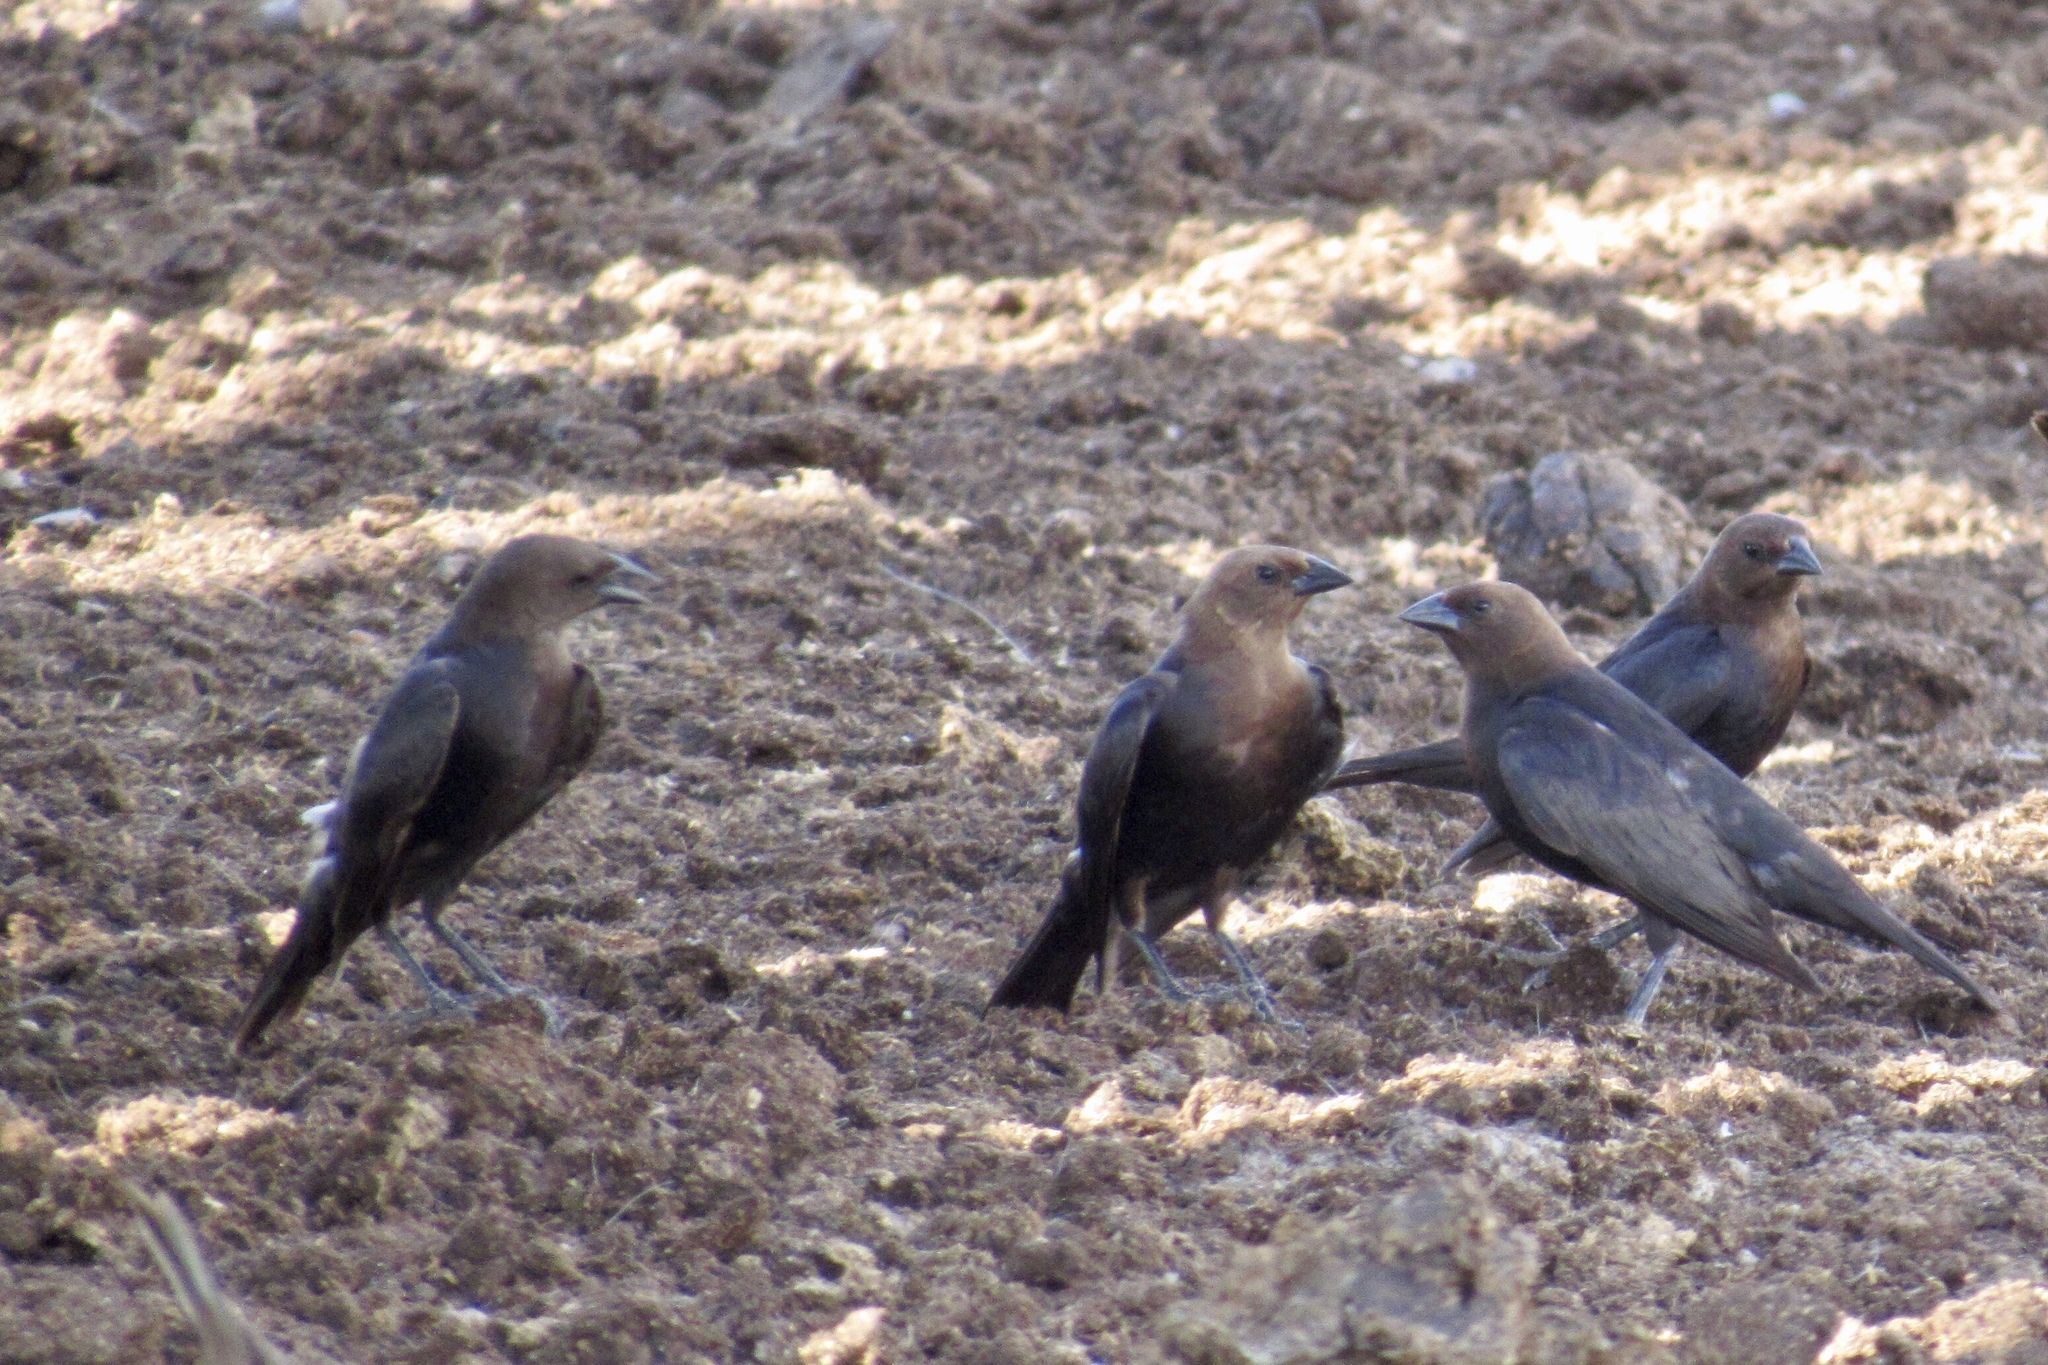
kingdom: Animalia
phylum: Chordata
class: Aves
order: Passeriformes
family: Icteridae
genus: Molothrus
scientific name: Molothrus ater
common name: Brown-headed cowbird
